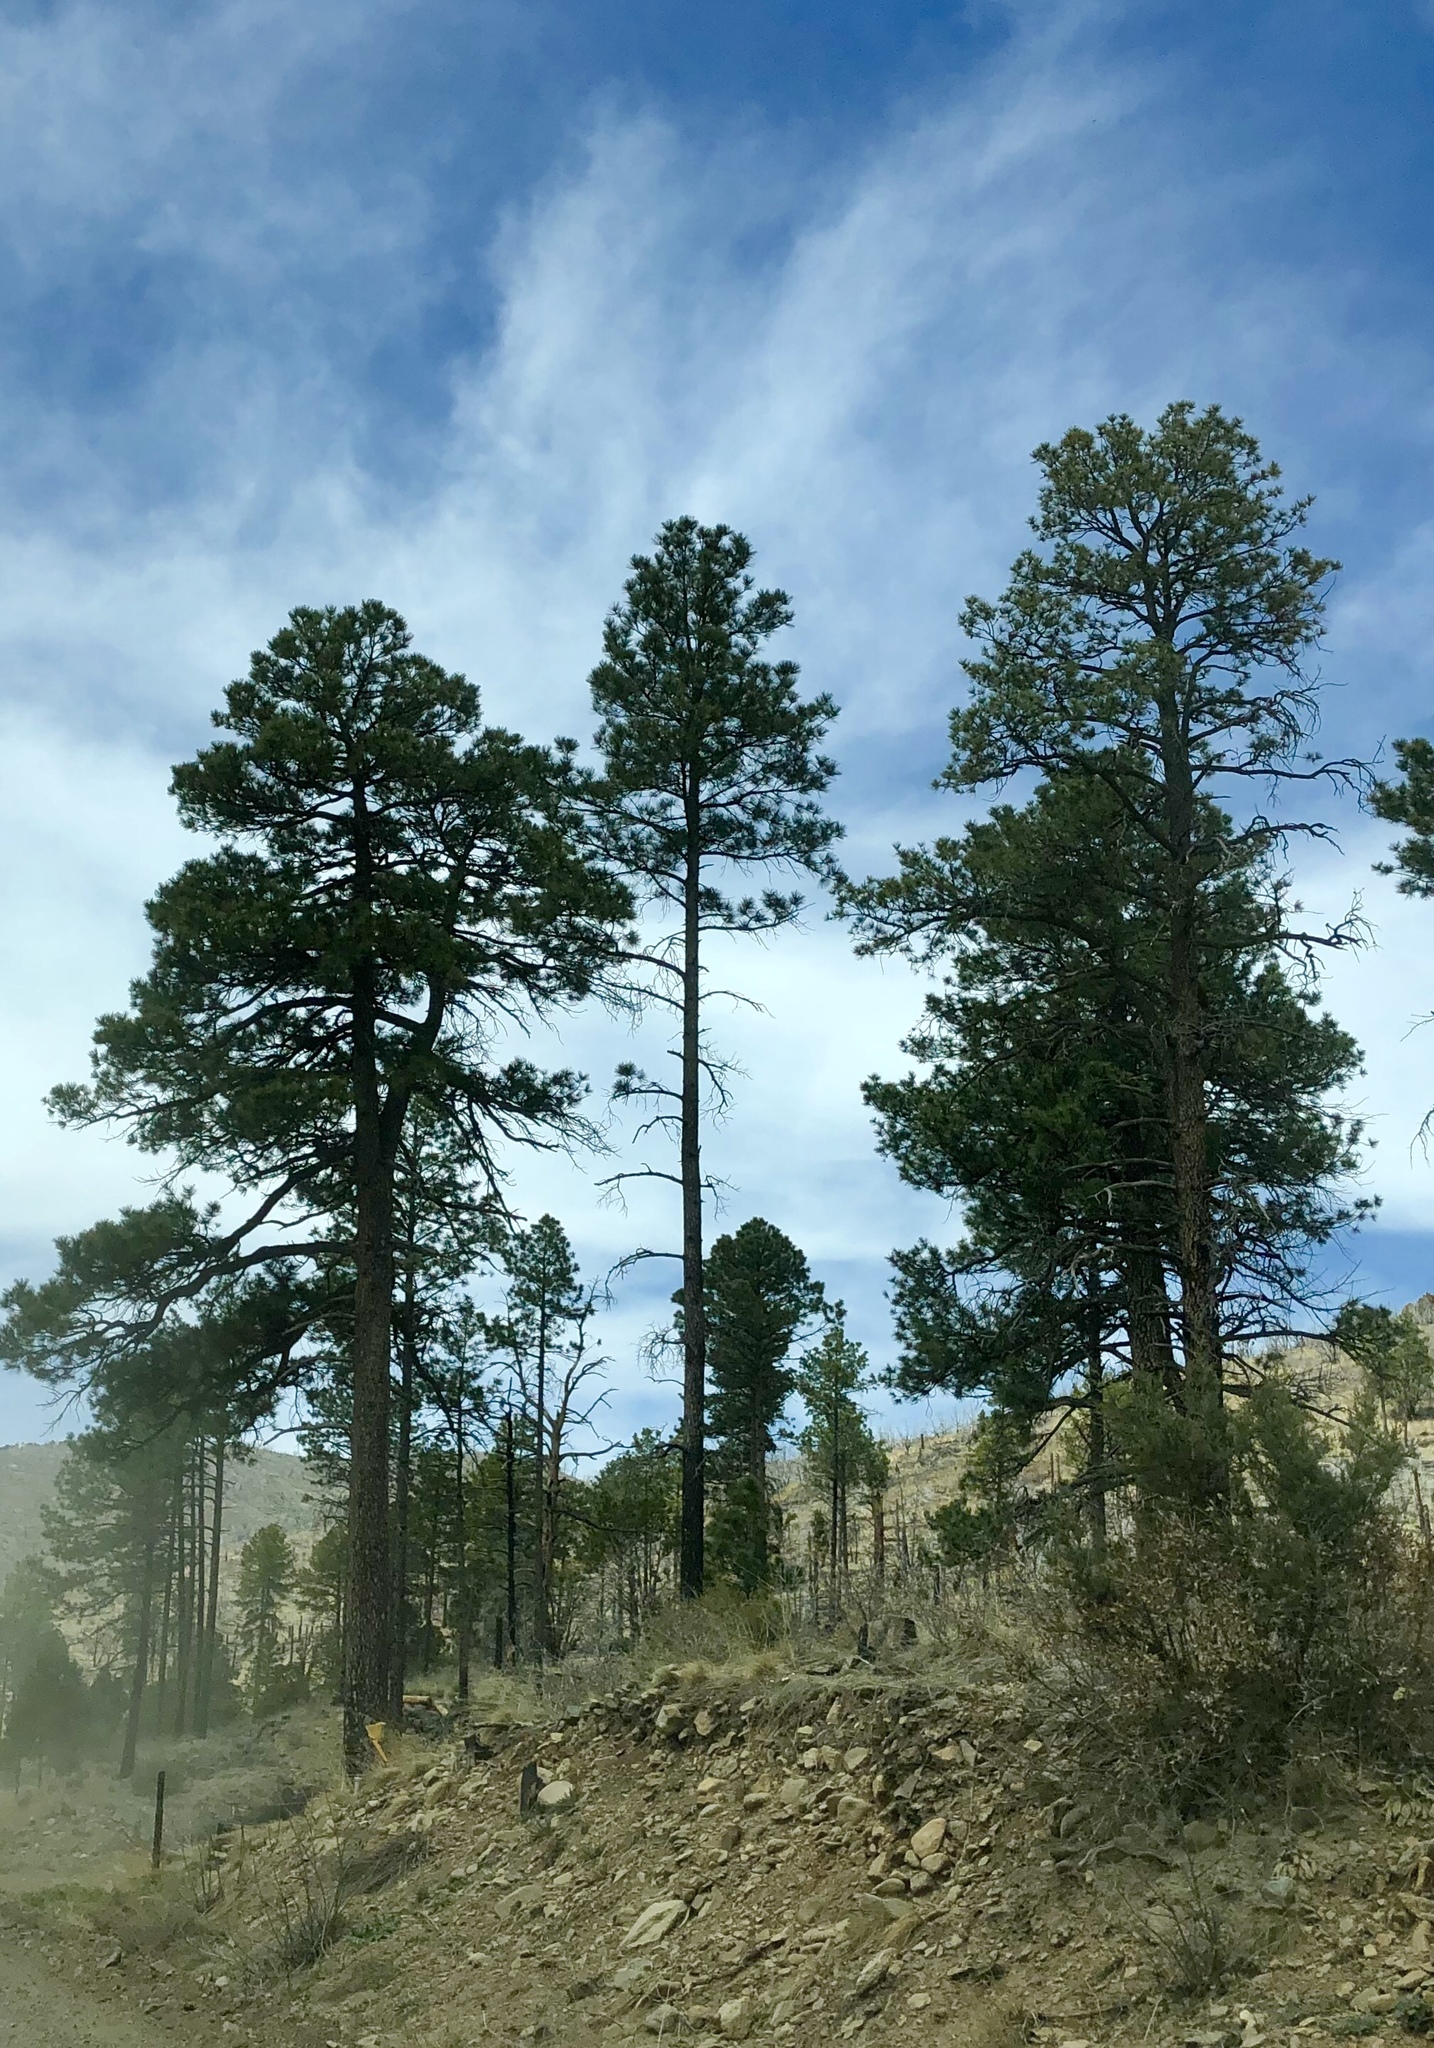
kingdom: Plantae
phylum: Tracheophyta
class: Pinopsida
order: Pinales
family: Pinaceae
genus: Pinus
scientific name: Pinus ponderosa
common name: Western yellow-pine
